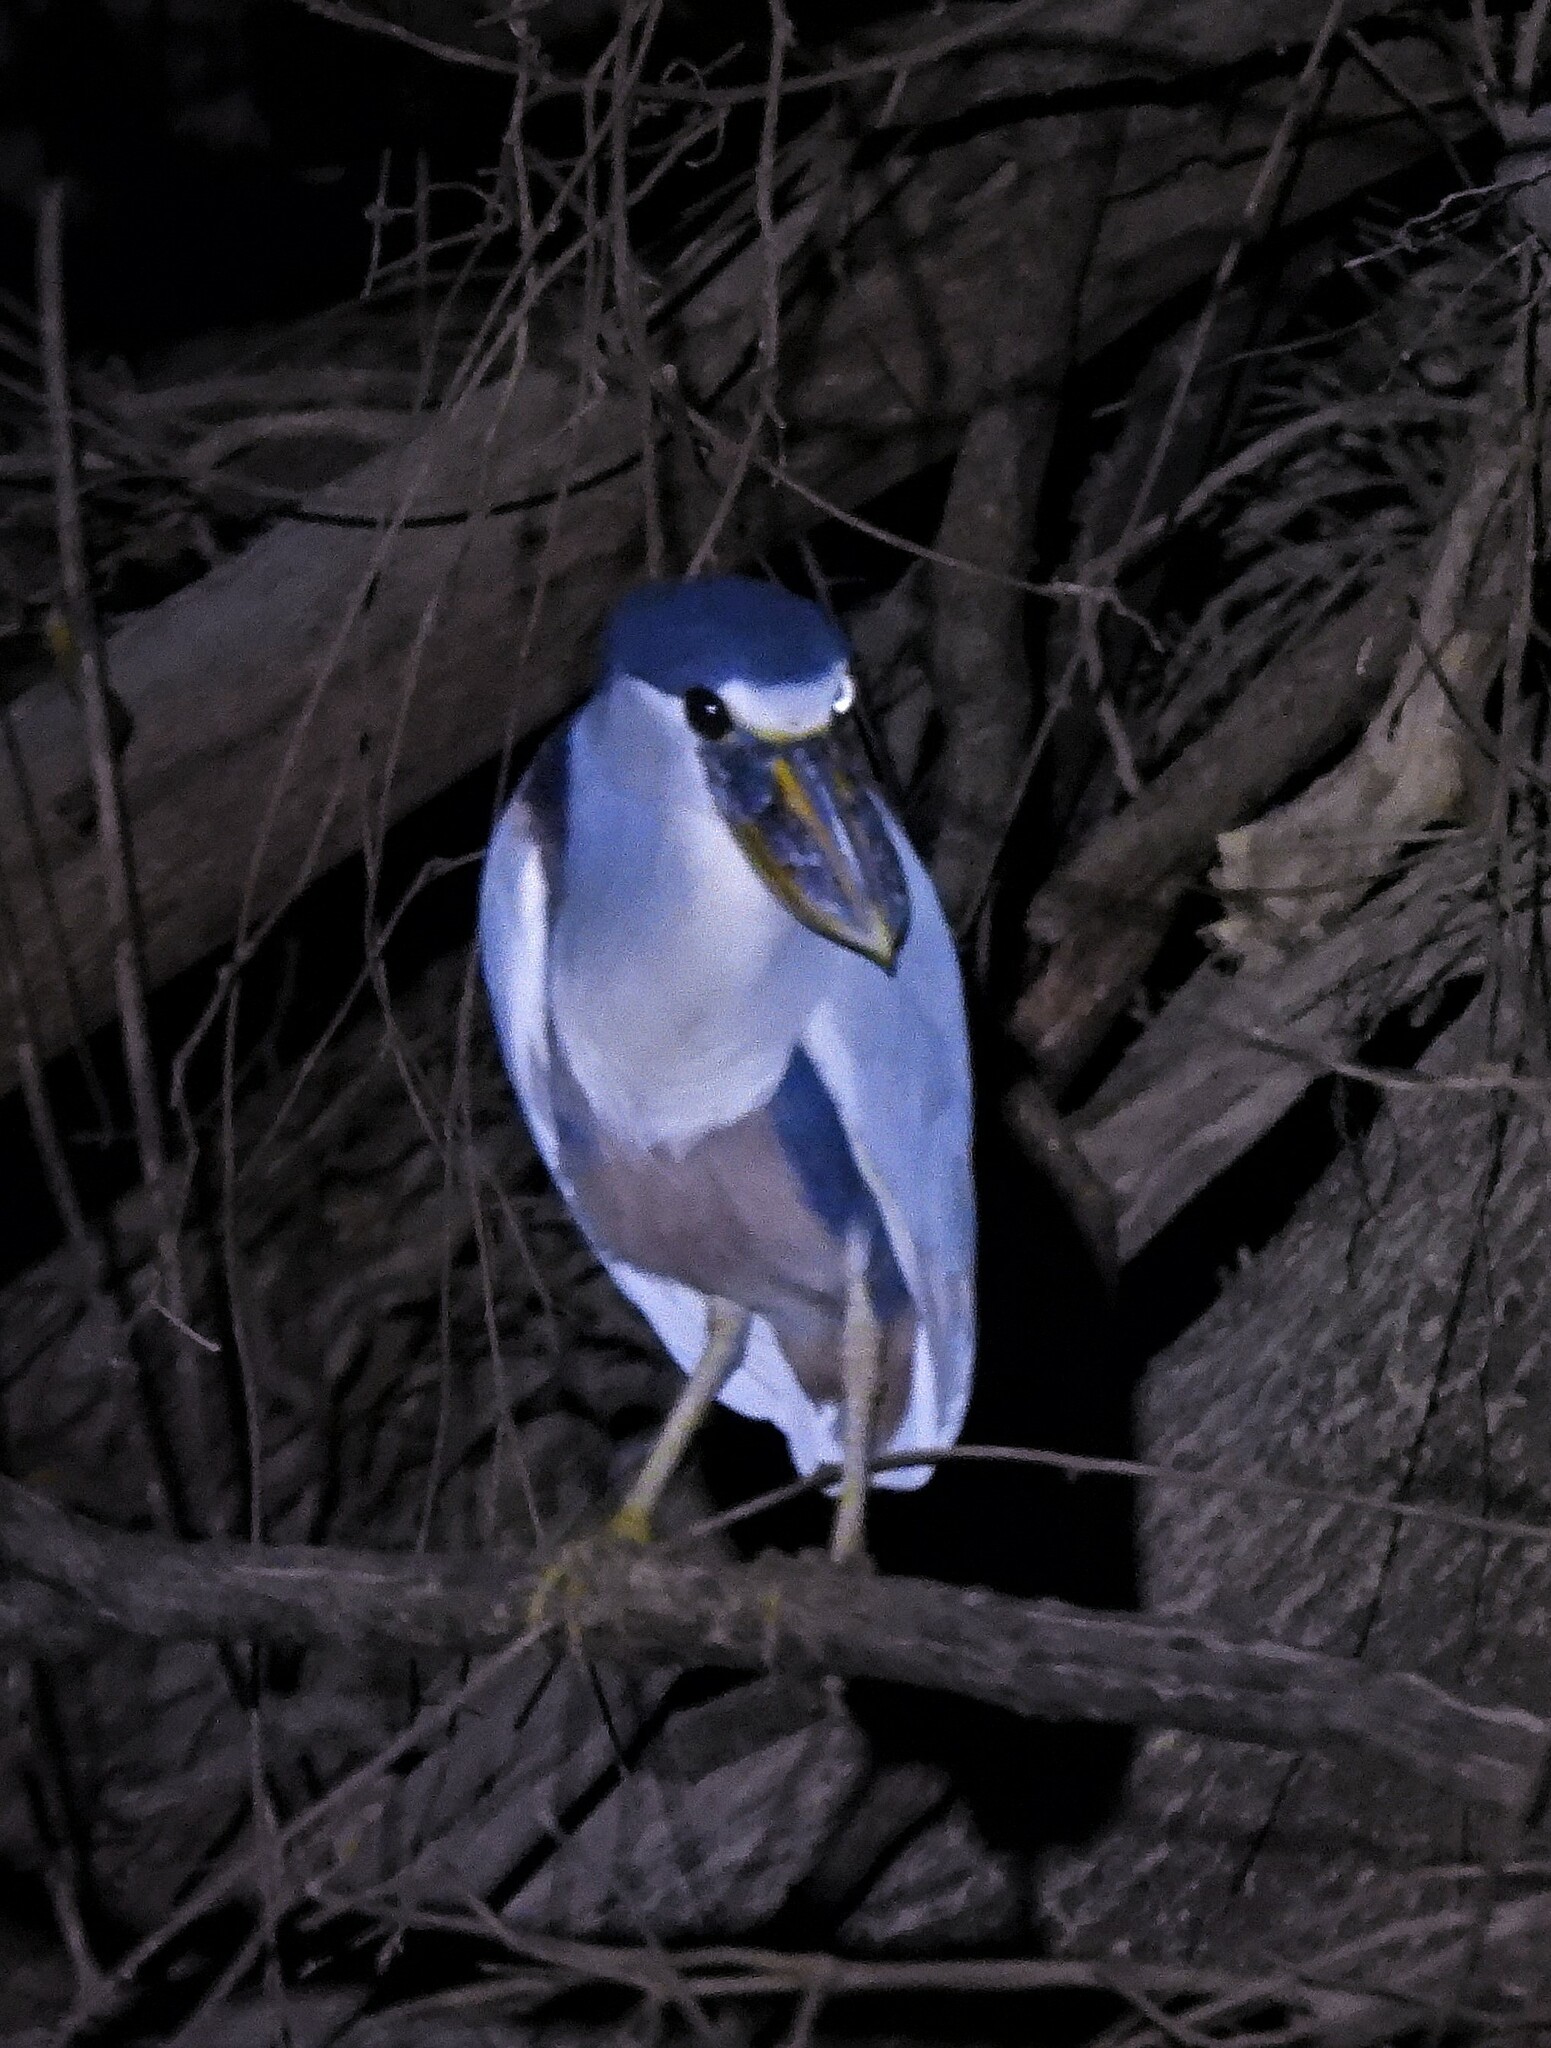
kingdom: Animalia
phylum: Chordata
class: Aves
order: Pelecaniformes
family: Ardeidae
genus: Cochlearius
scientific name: Cochlearius cochlearius
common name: Boat-billed heron
